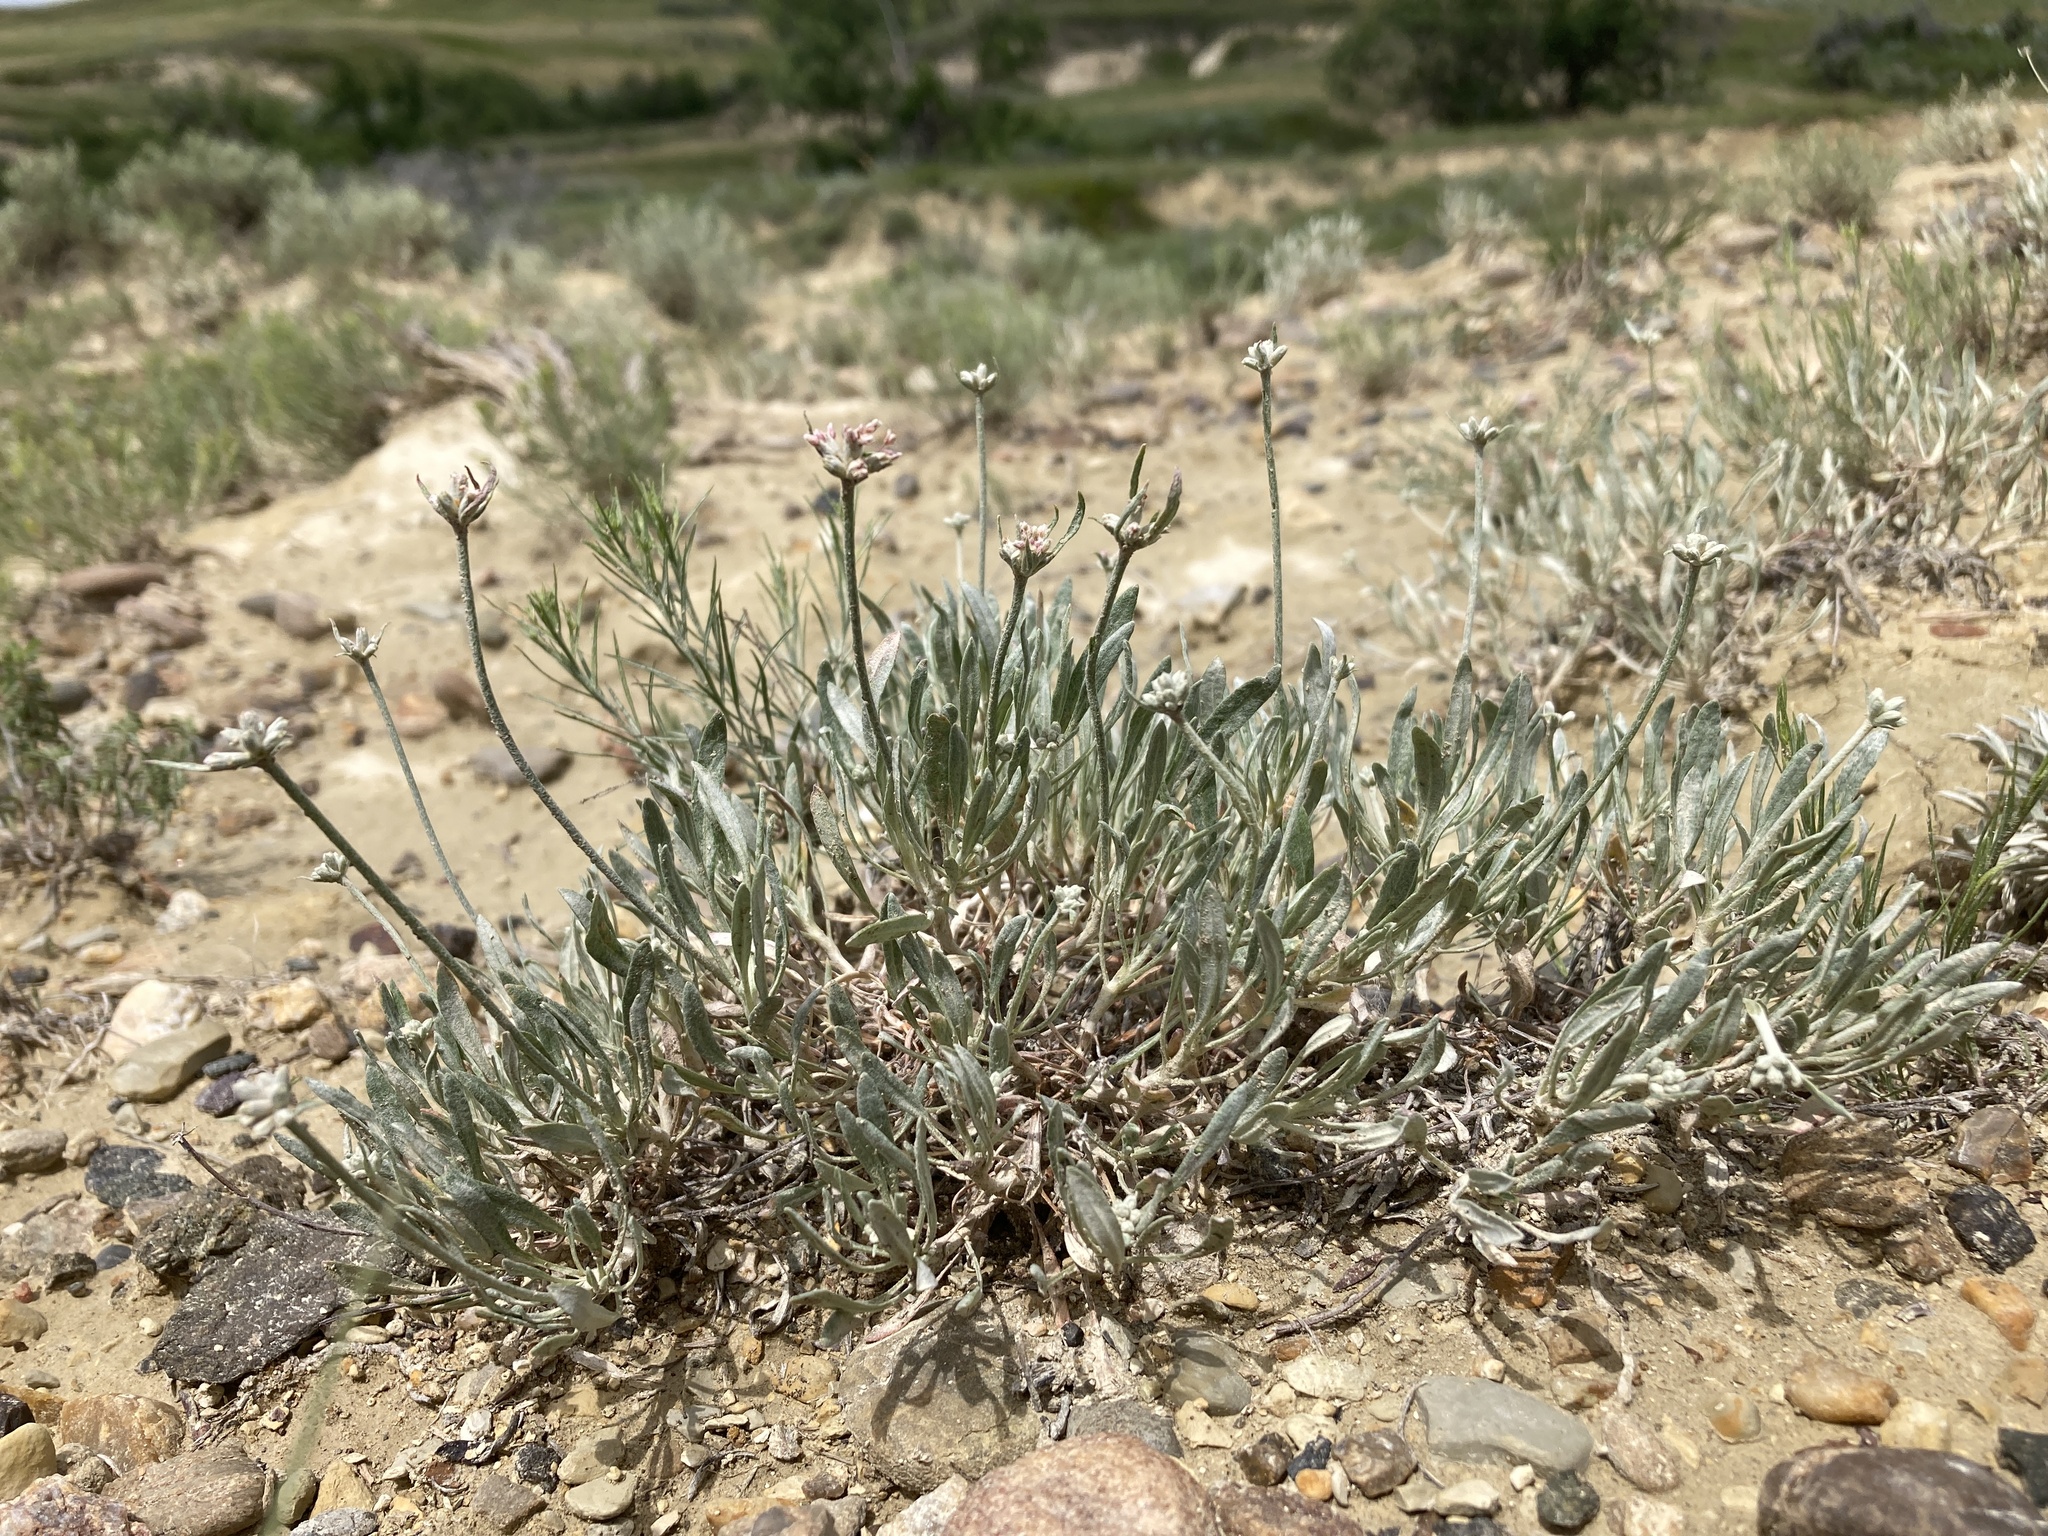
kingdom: Plantae
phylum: Tracheophyta
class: Magnoliopsida
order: Caryophyllales
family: Polygonaceae
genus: Eriogonum
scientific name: Eriogonum pauciflorum
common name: Few-flower wild buckwheat
